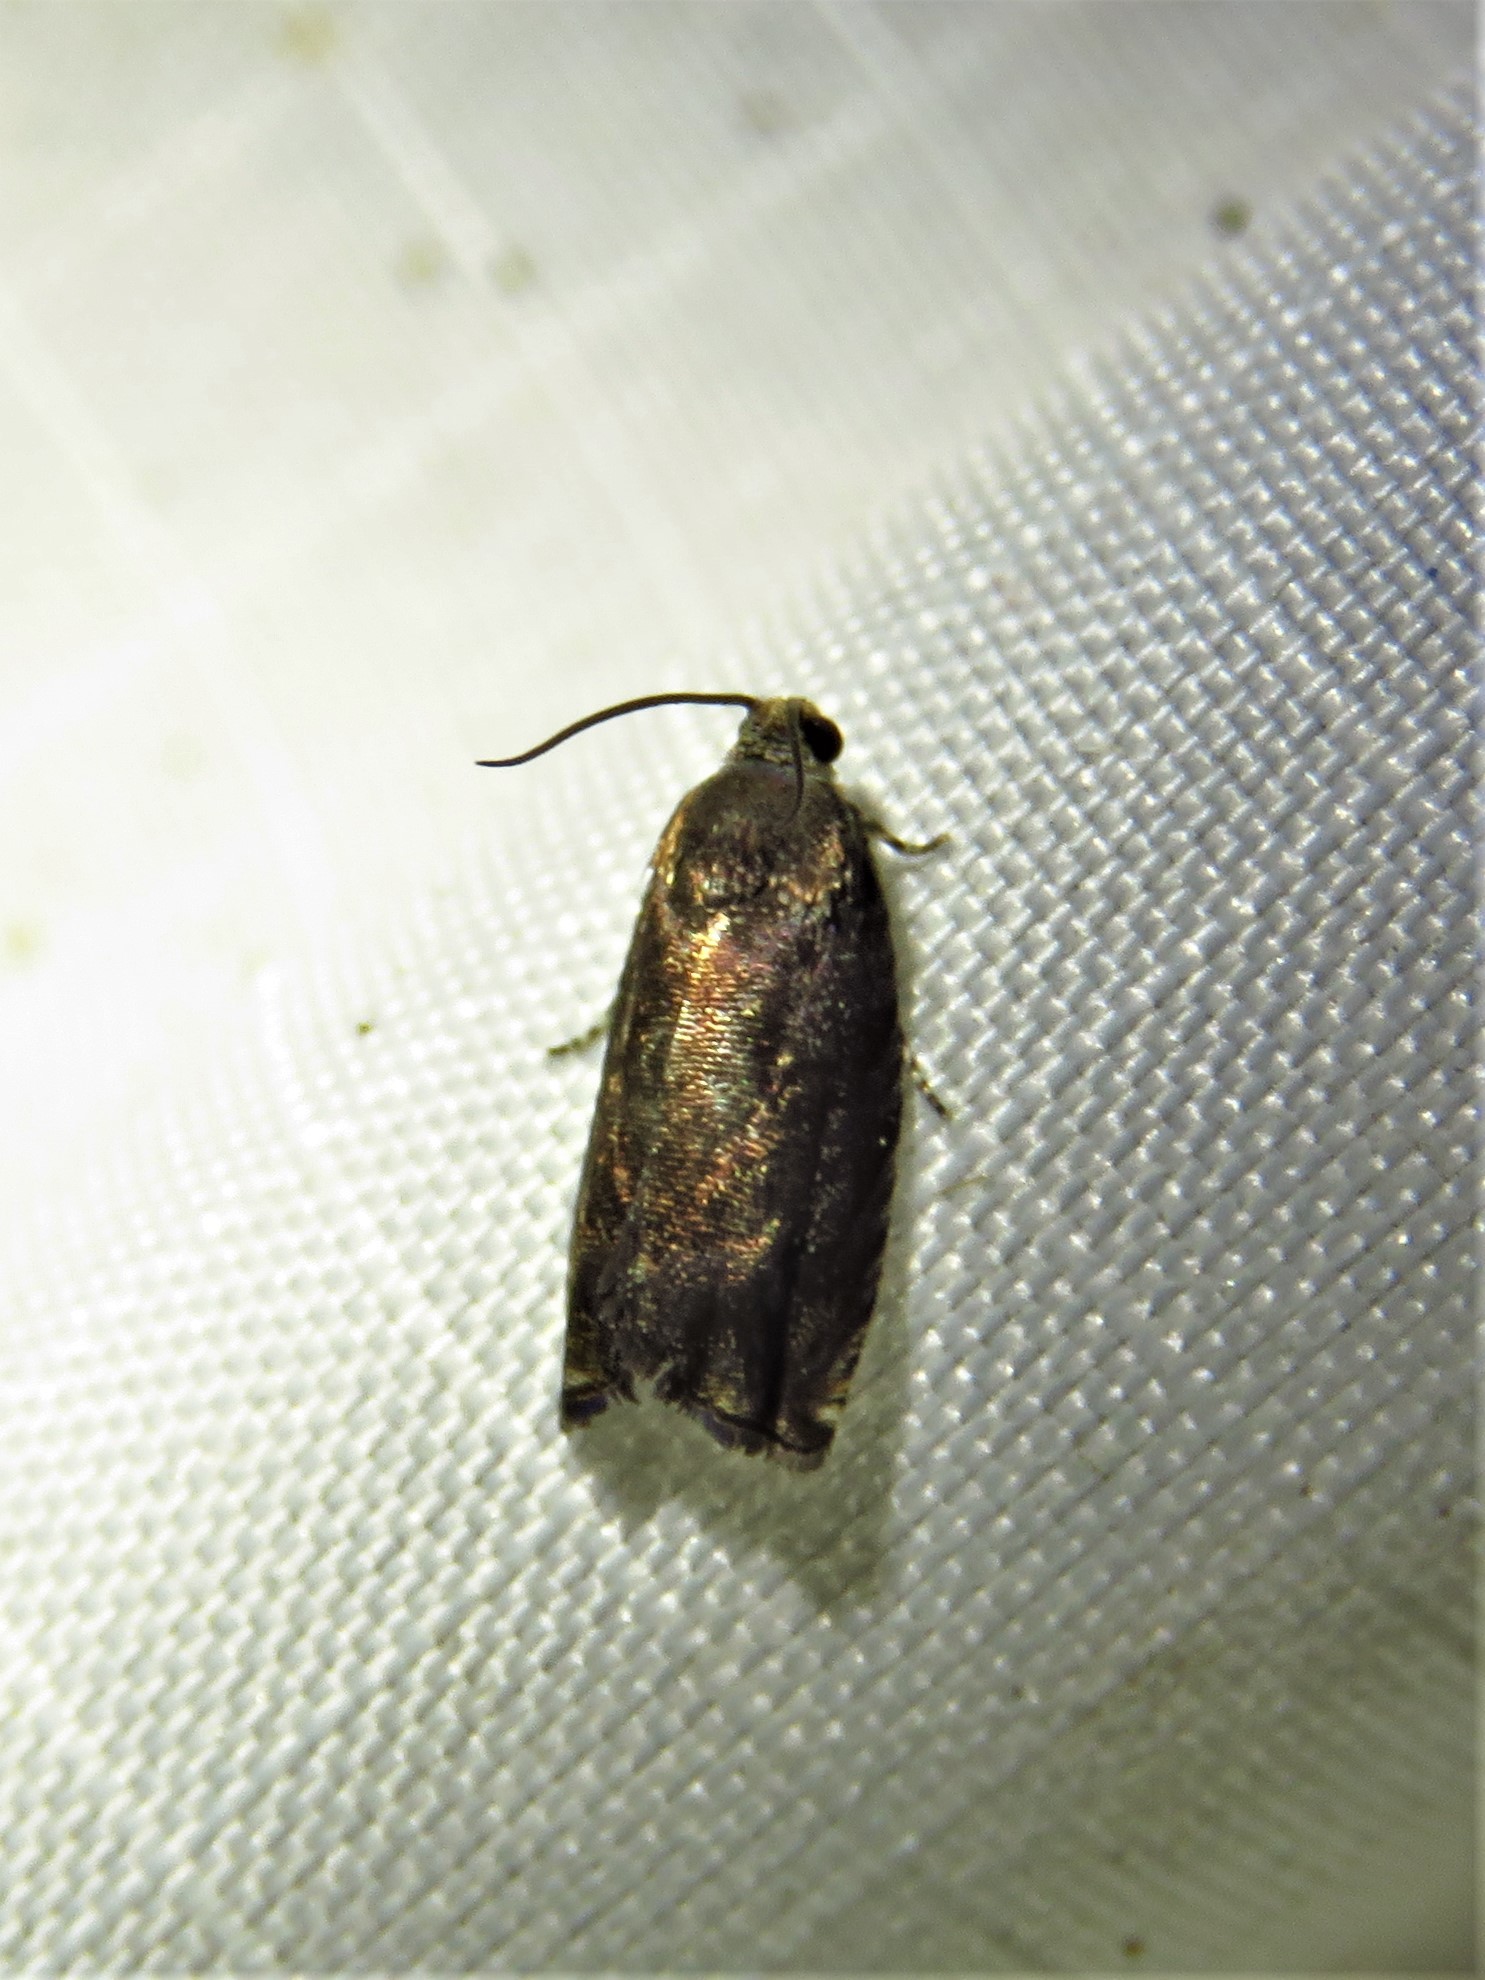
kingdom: Animalia
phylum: Arthropoda
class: Insecta
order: Lepidoptera
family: Tortricidae
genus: Cydia
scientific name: Cydia caryana
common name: Hickory shuckworm moth
